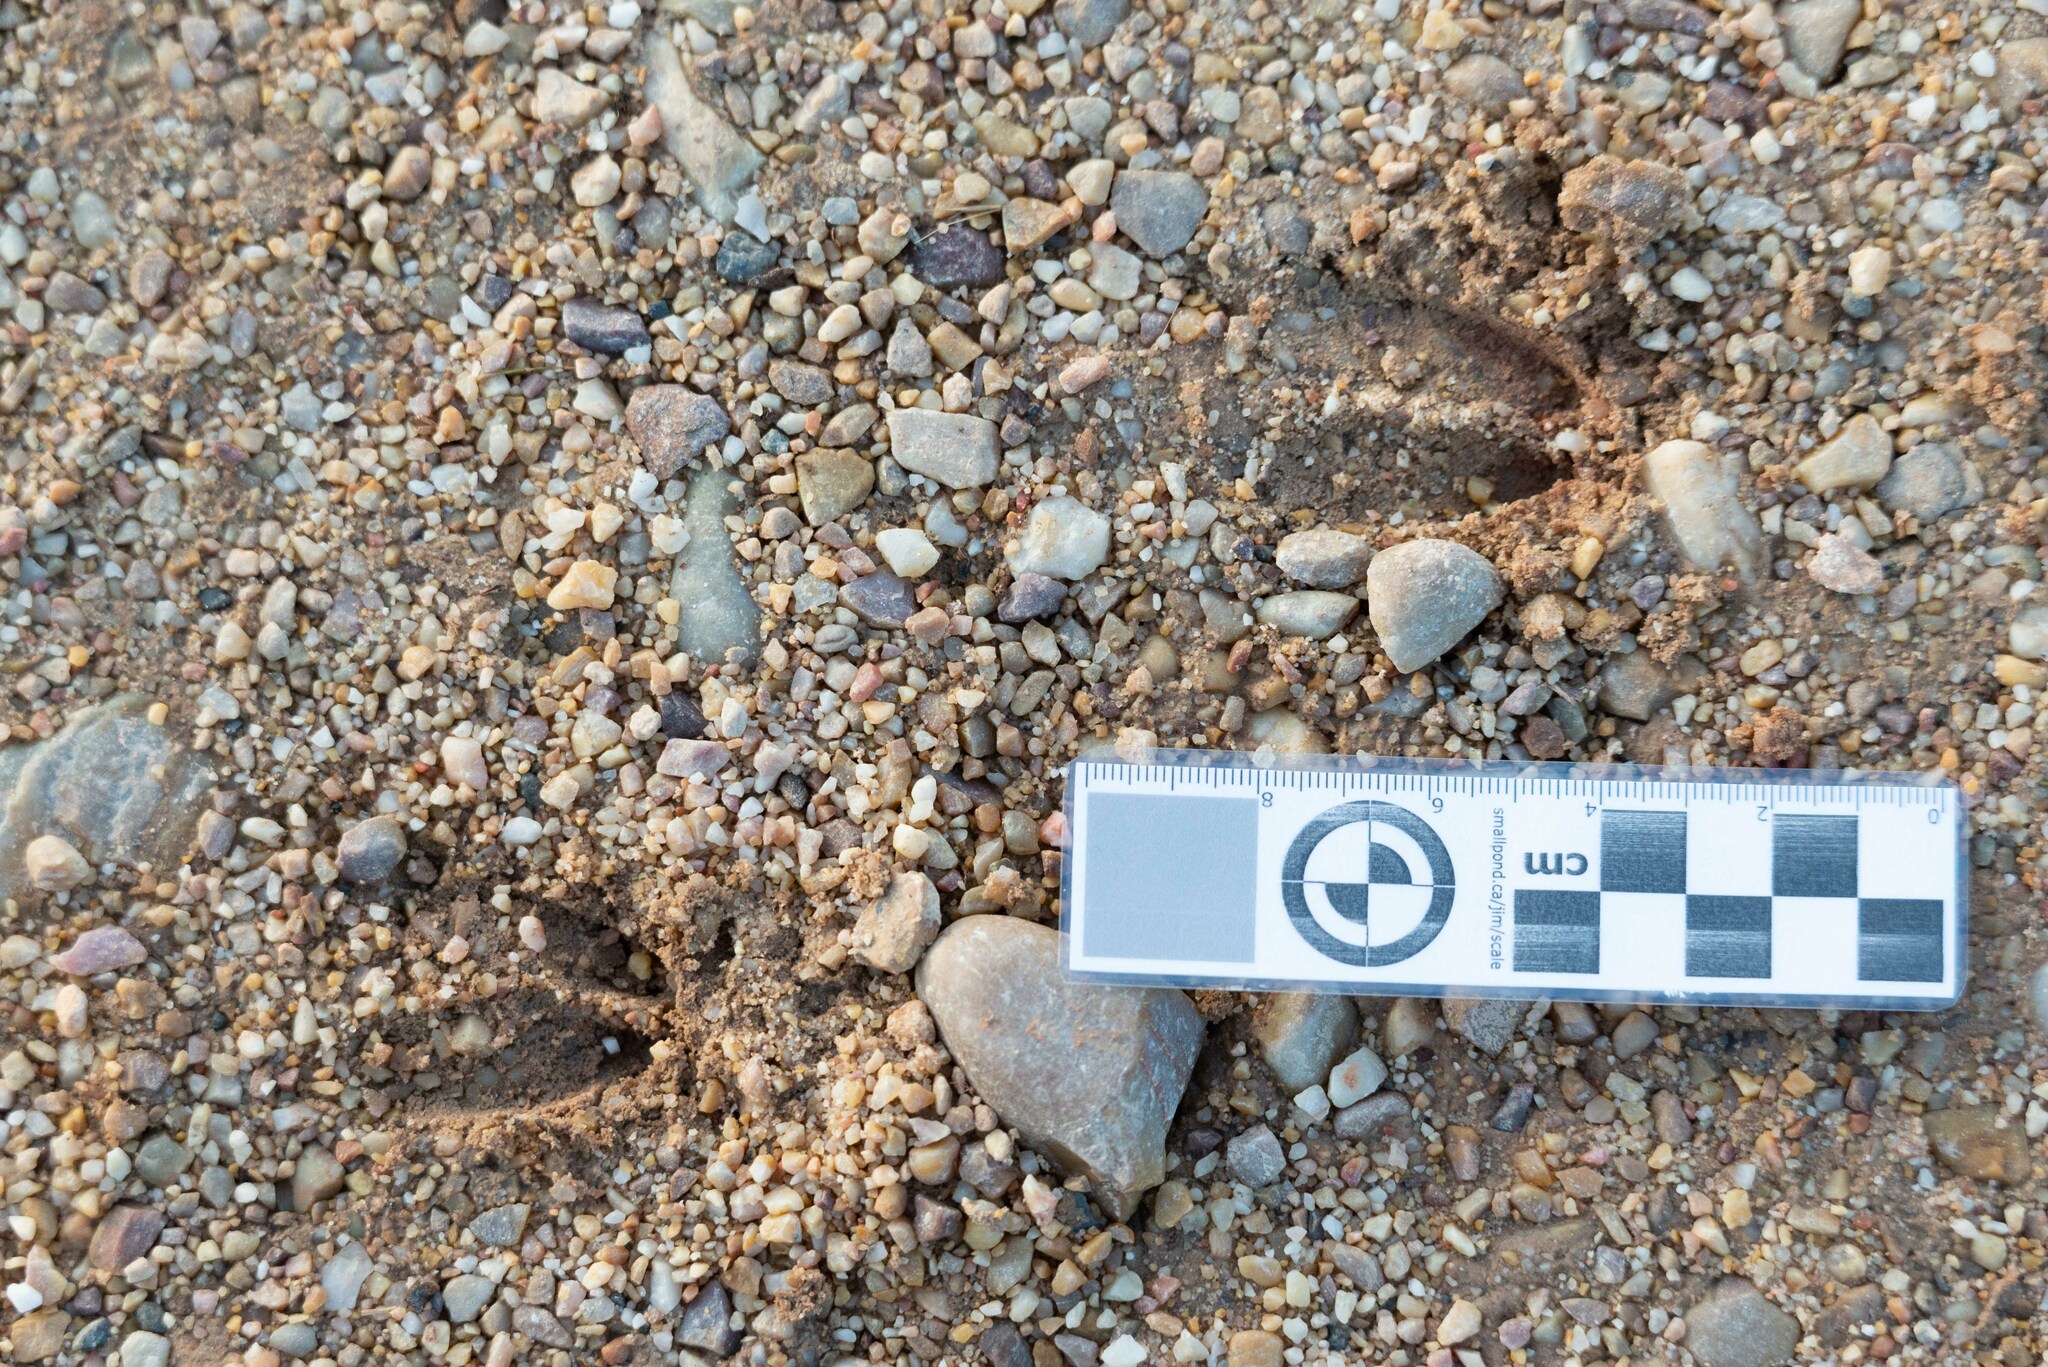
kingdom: Animalia
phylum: Chordata
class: Mammalia
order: Artiodactyla
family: Cervidae
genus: Capreolus
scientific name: Capreolus capreolus
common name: Western roe deer
